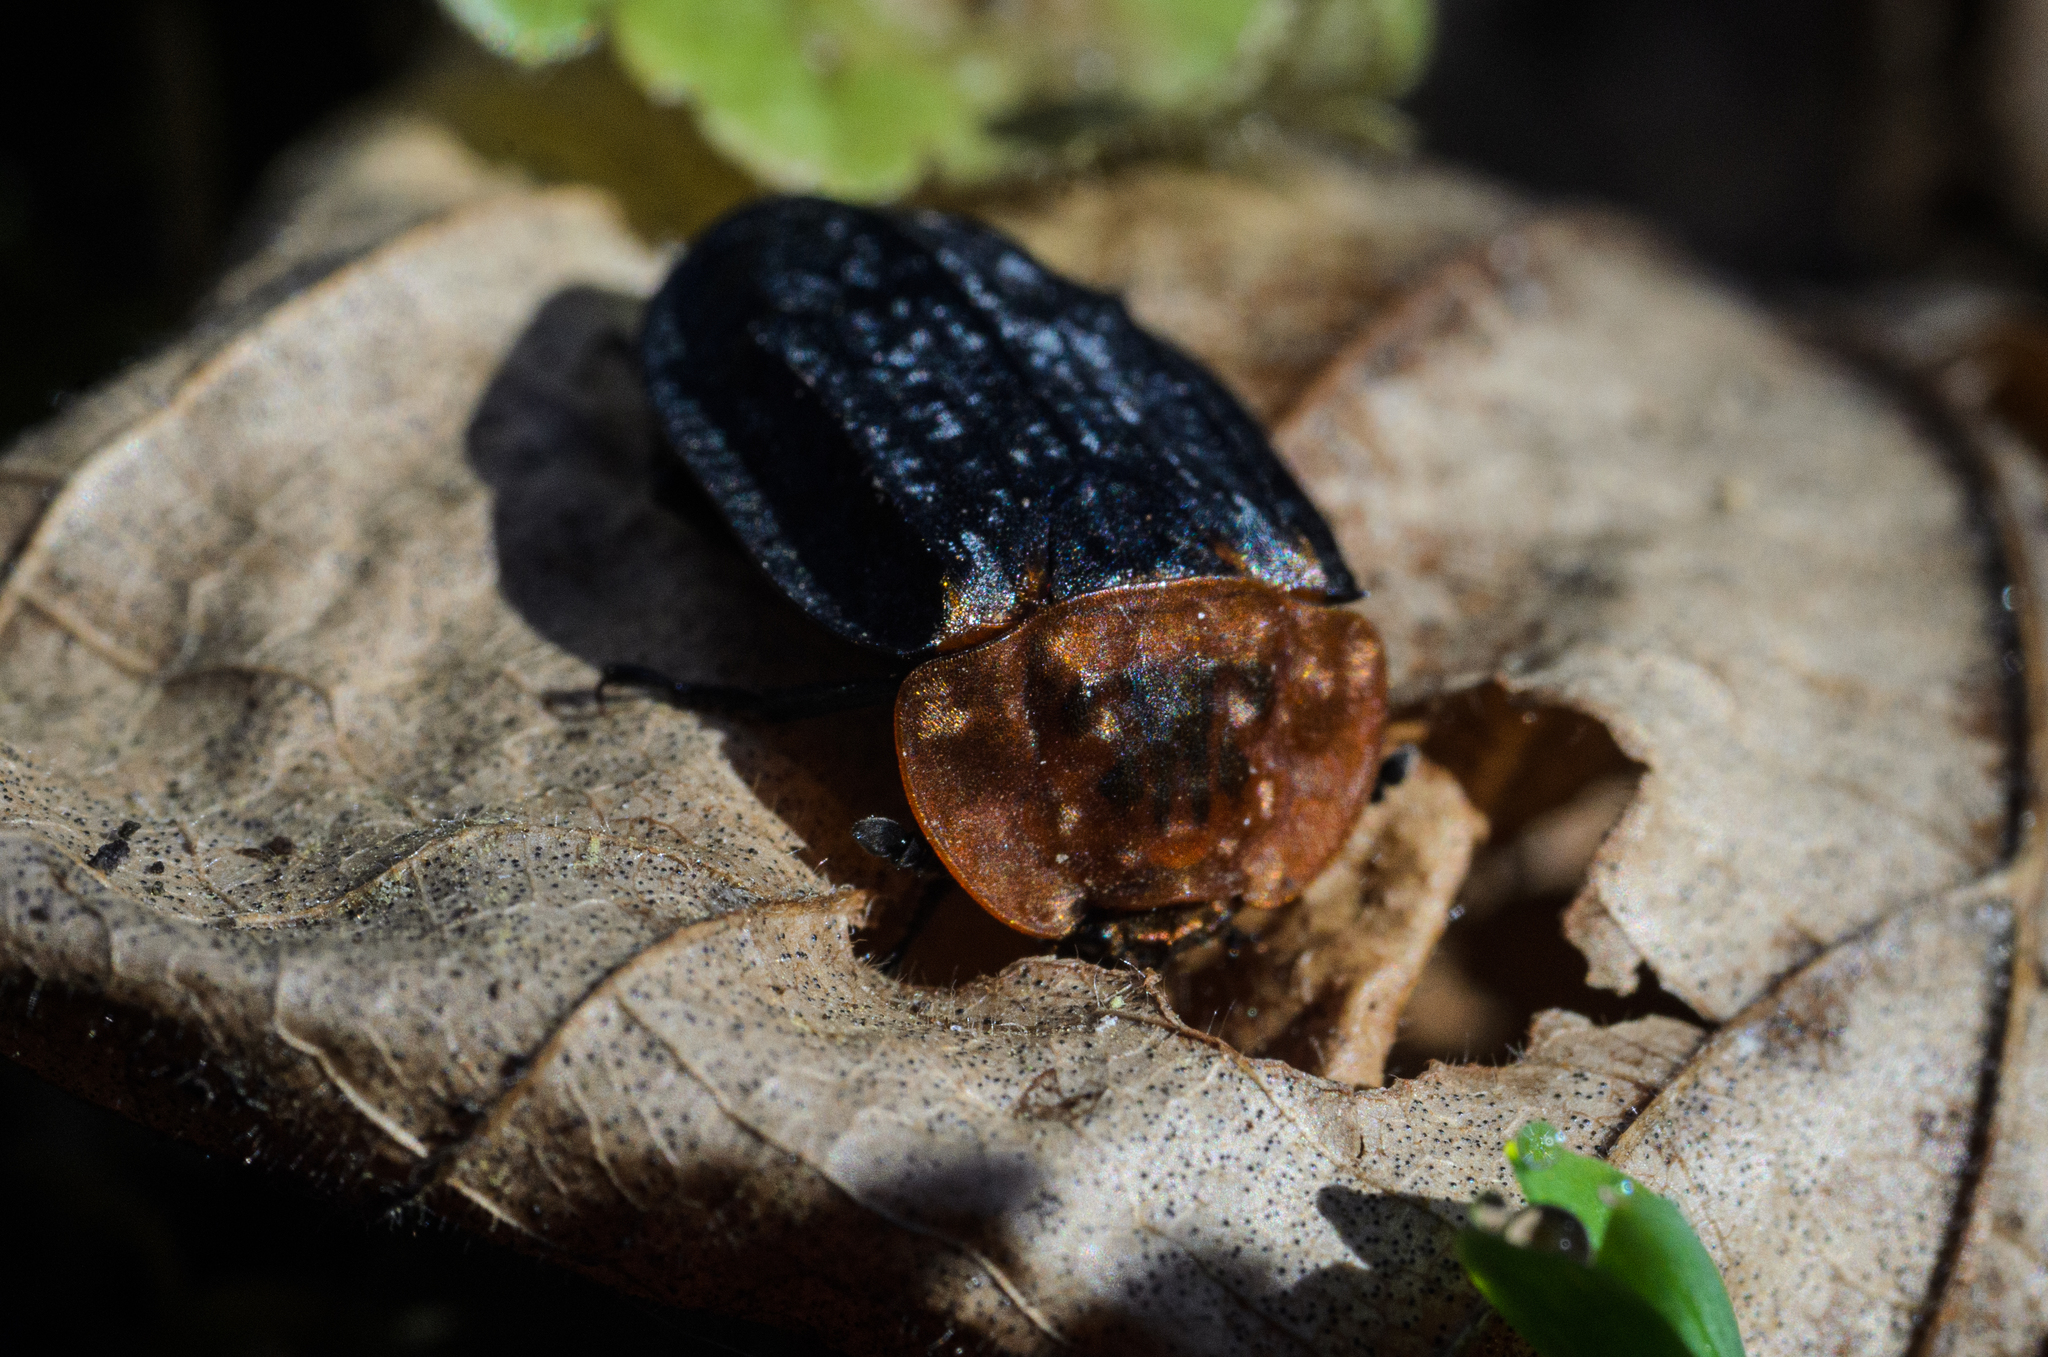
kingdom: Animalia
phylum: Arthropoda
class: Insecta
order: Coleoptera
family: Staphylinidae
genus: Oiceoptoma
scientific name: Oiceoptoma thoracicum
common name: Red-breasted carrion beetle
